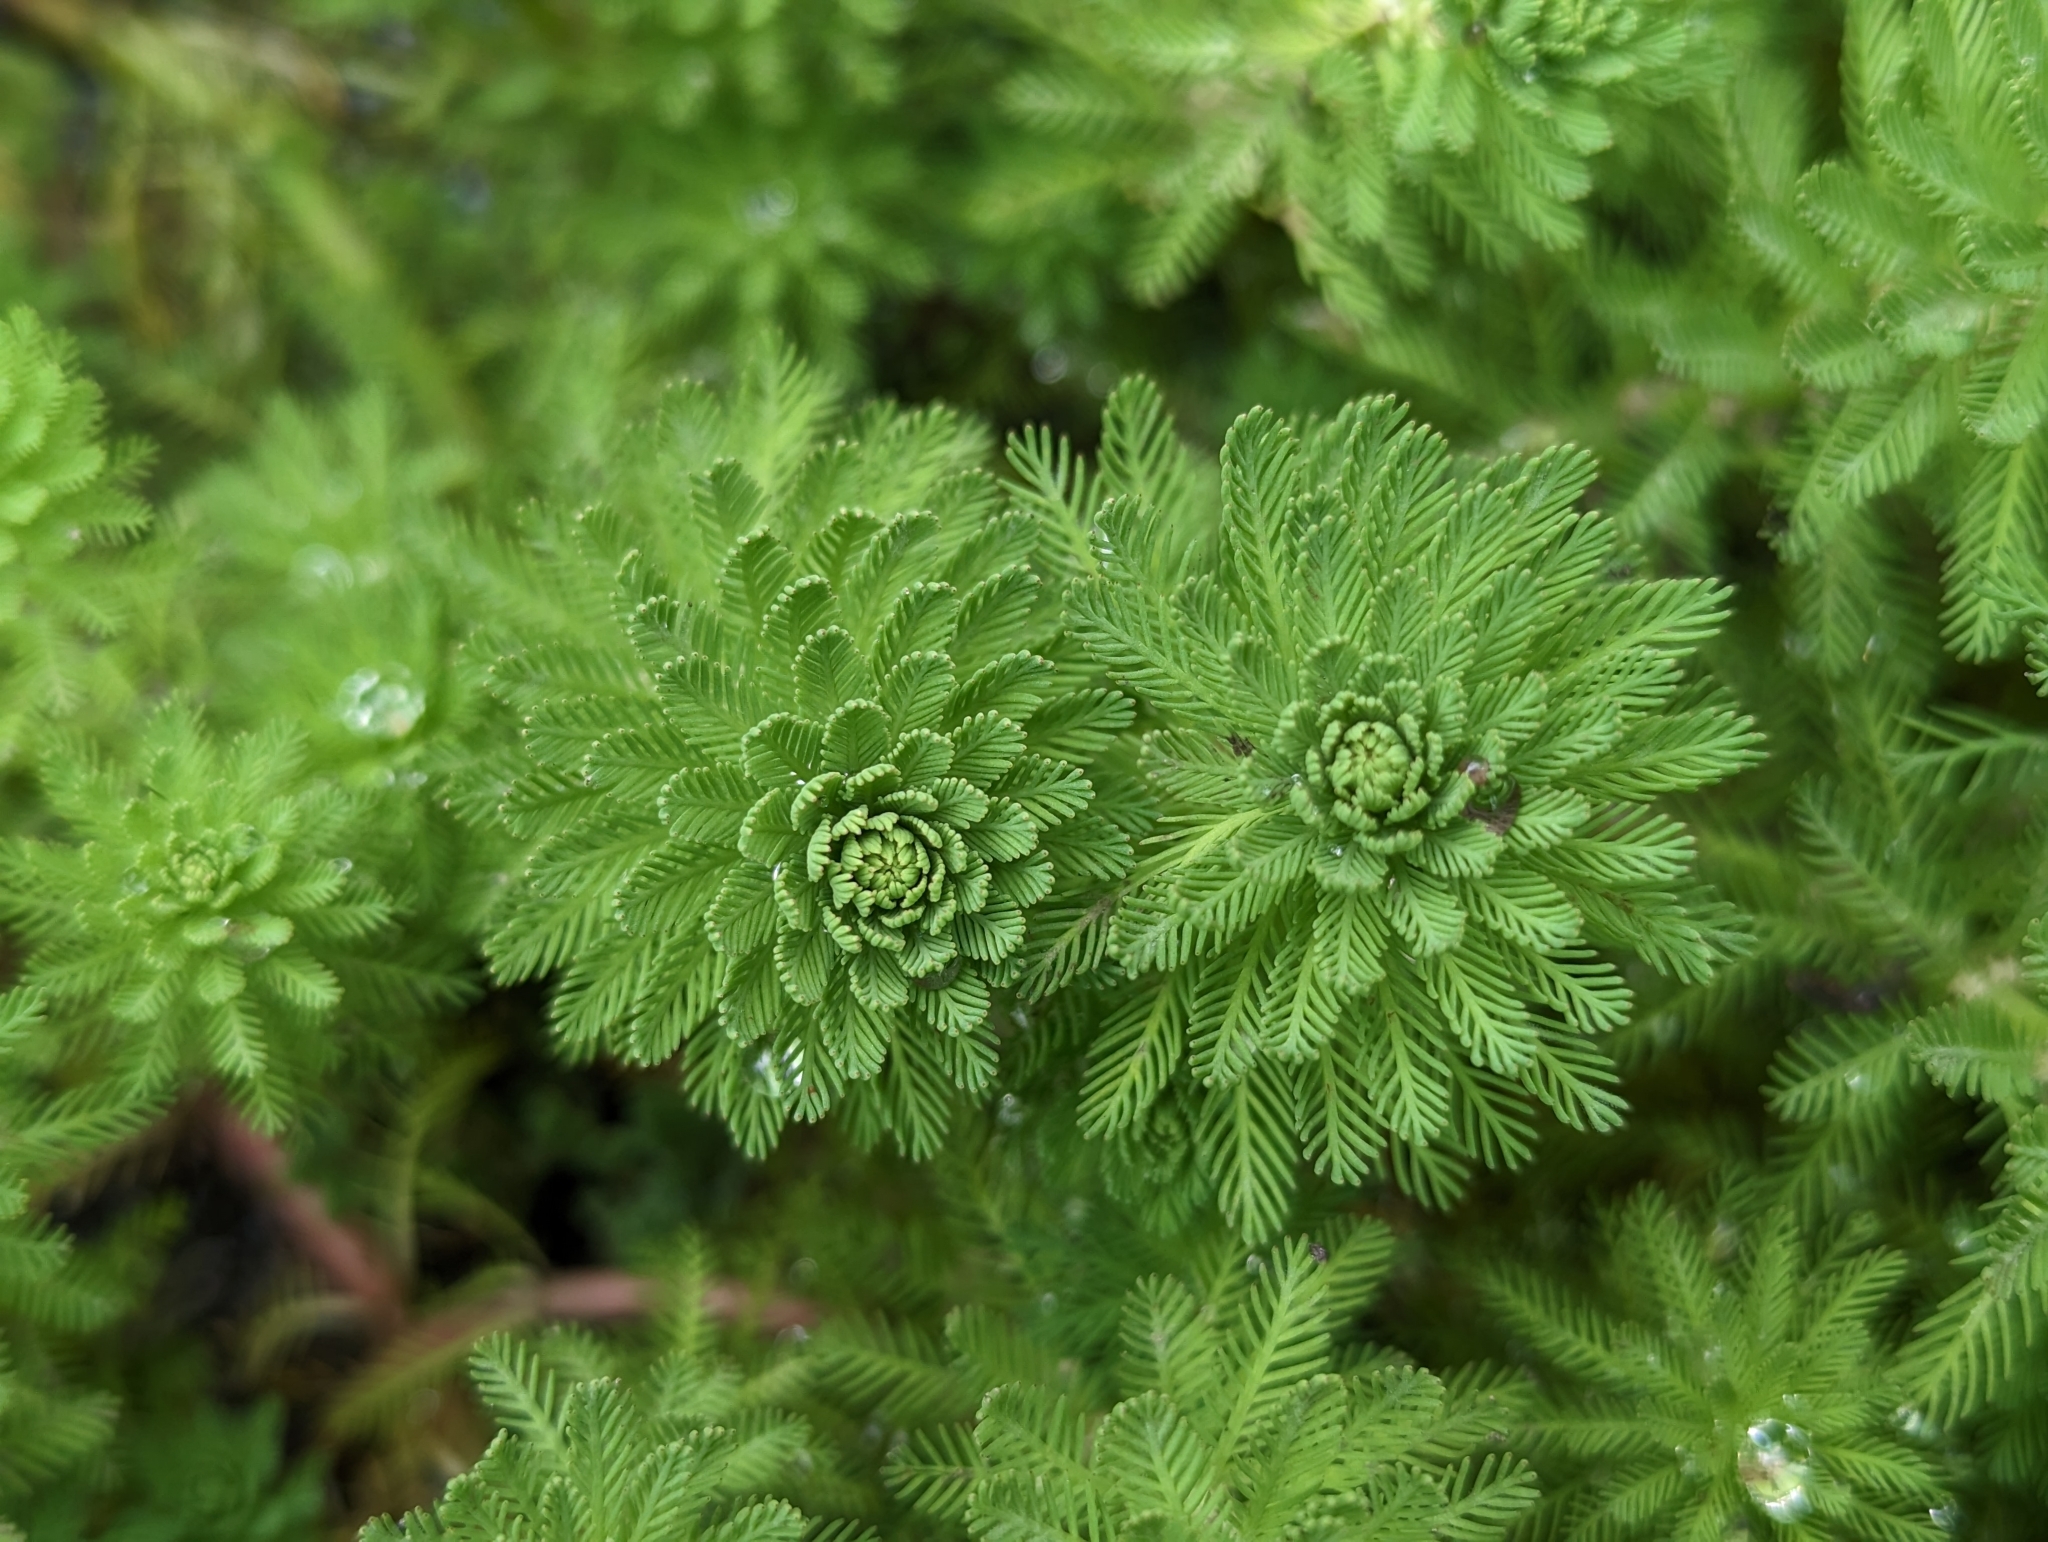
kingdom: Plantae
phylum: Tracheophyta
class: Magnoliopsida
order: Saxifragales
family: Haloragaceae
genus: Myriophyllum
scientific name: Myriophyllum aquaticum
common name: Parrot's feather
